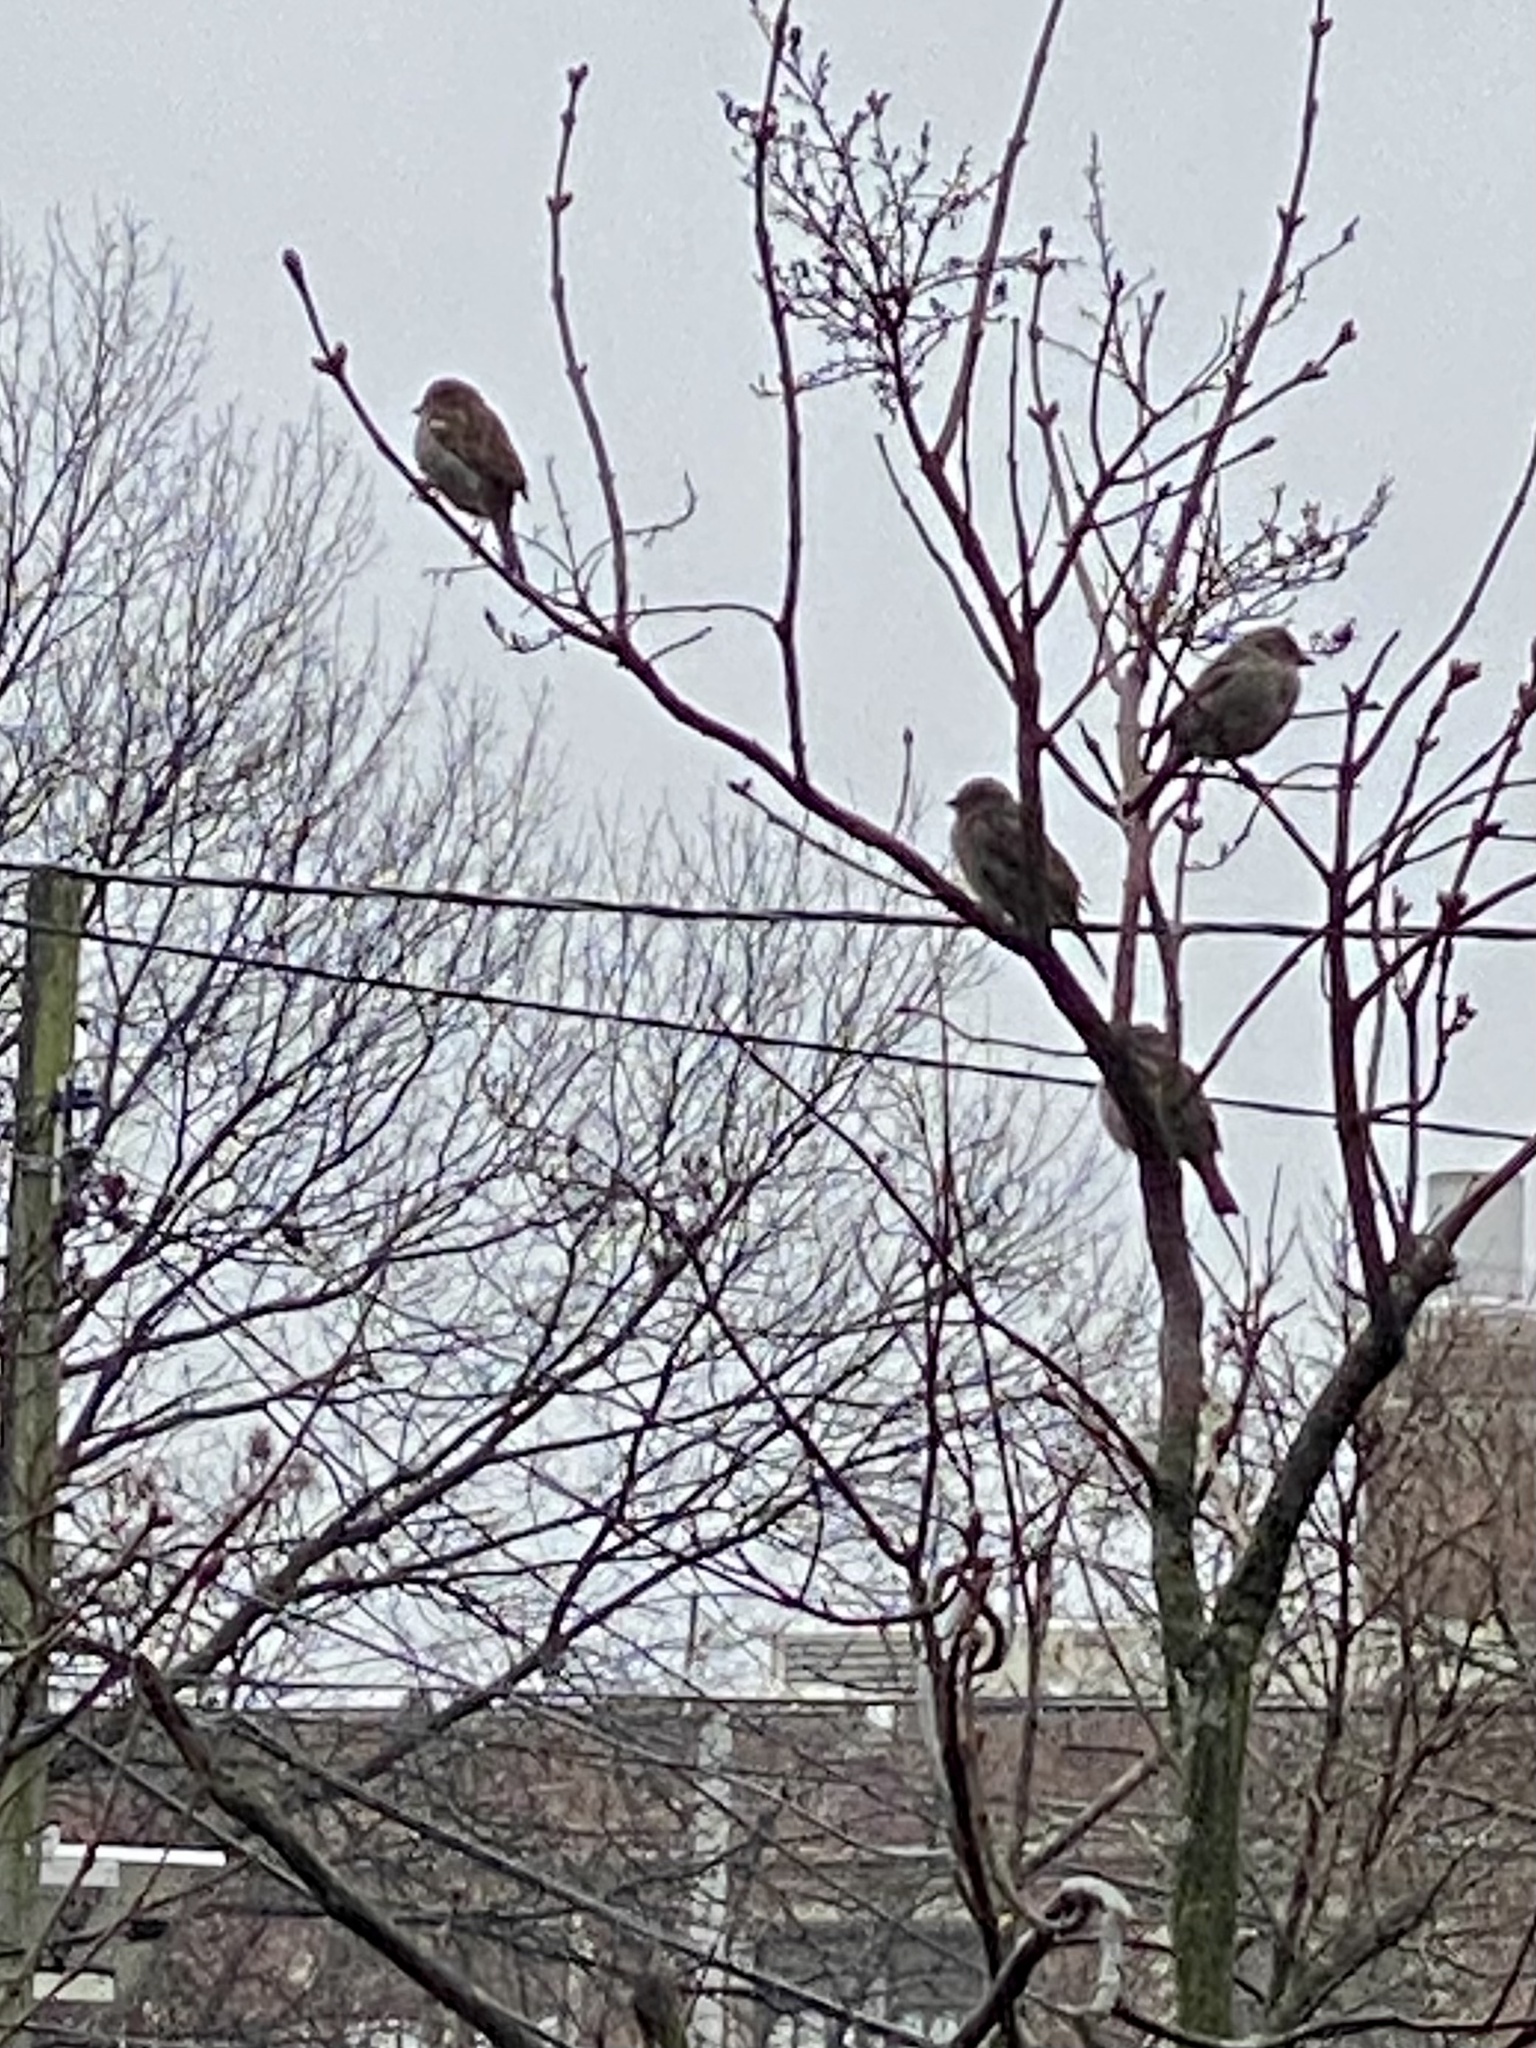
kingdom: Animalia
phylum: Chordata
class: Aves
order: Passeriformes
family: Passeridae
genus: Passer
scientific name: Passer domesticus
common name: House sparrow
